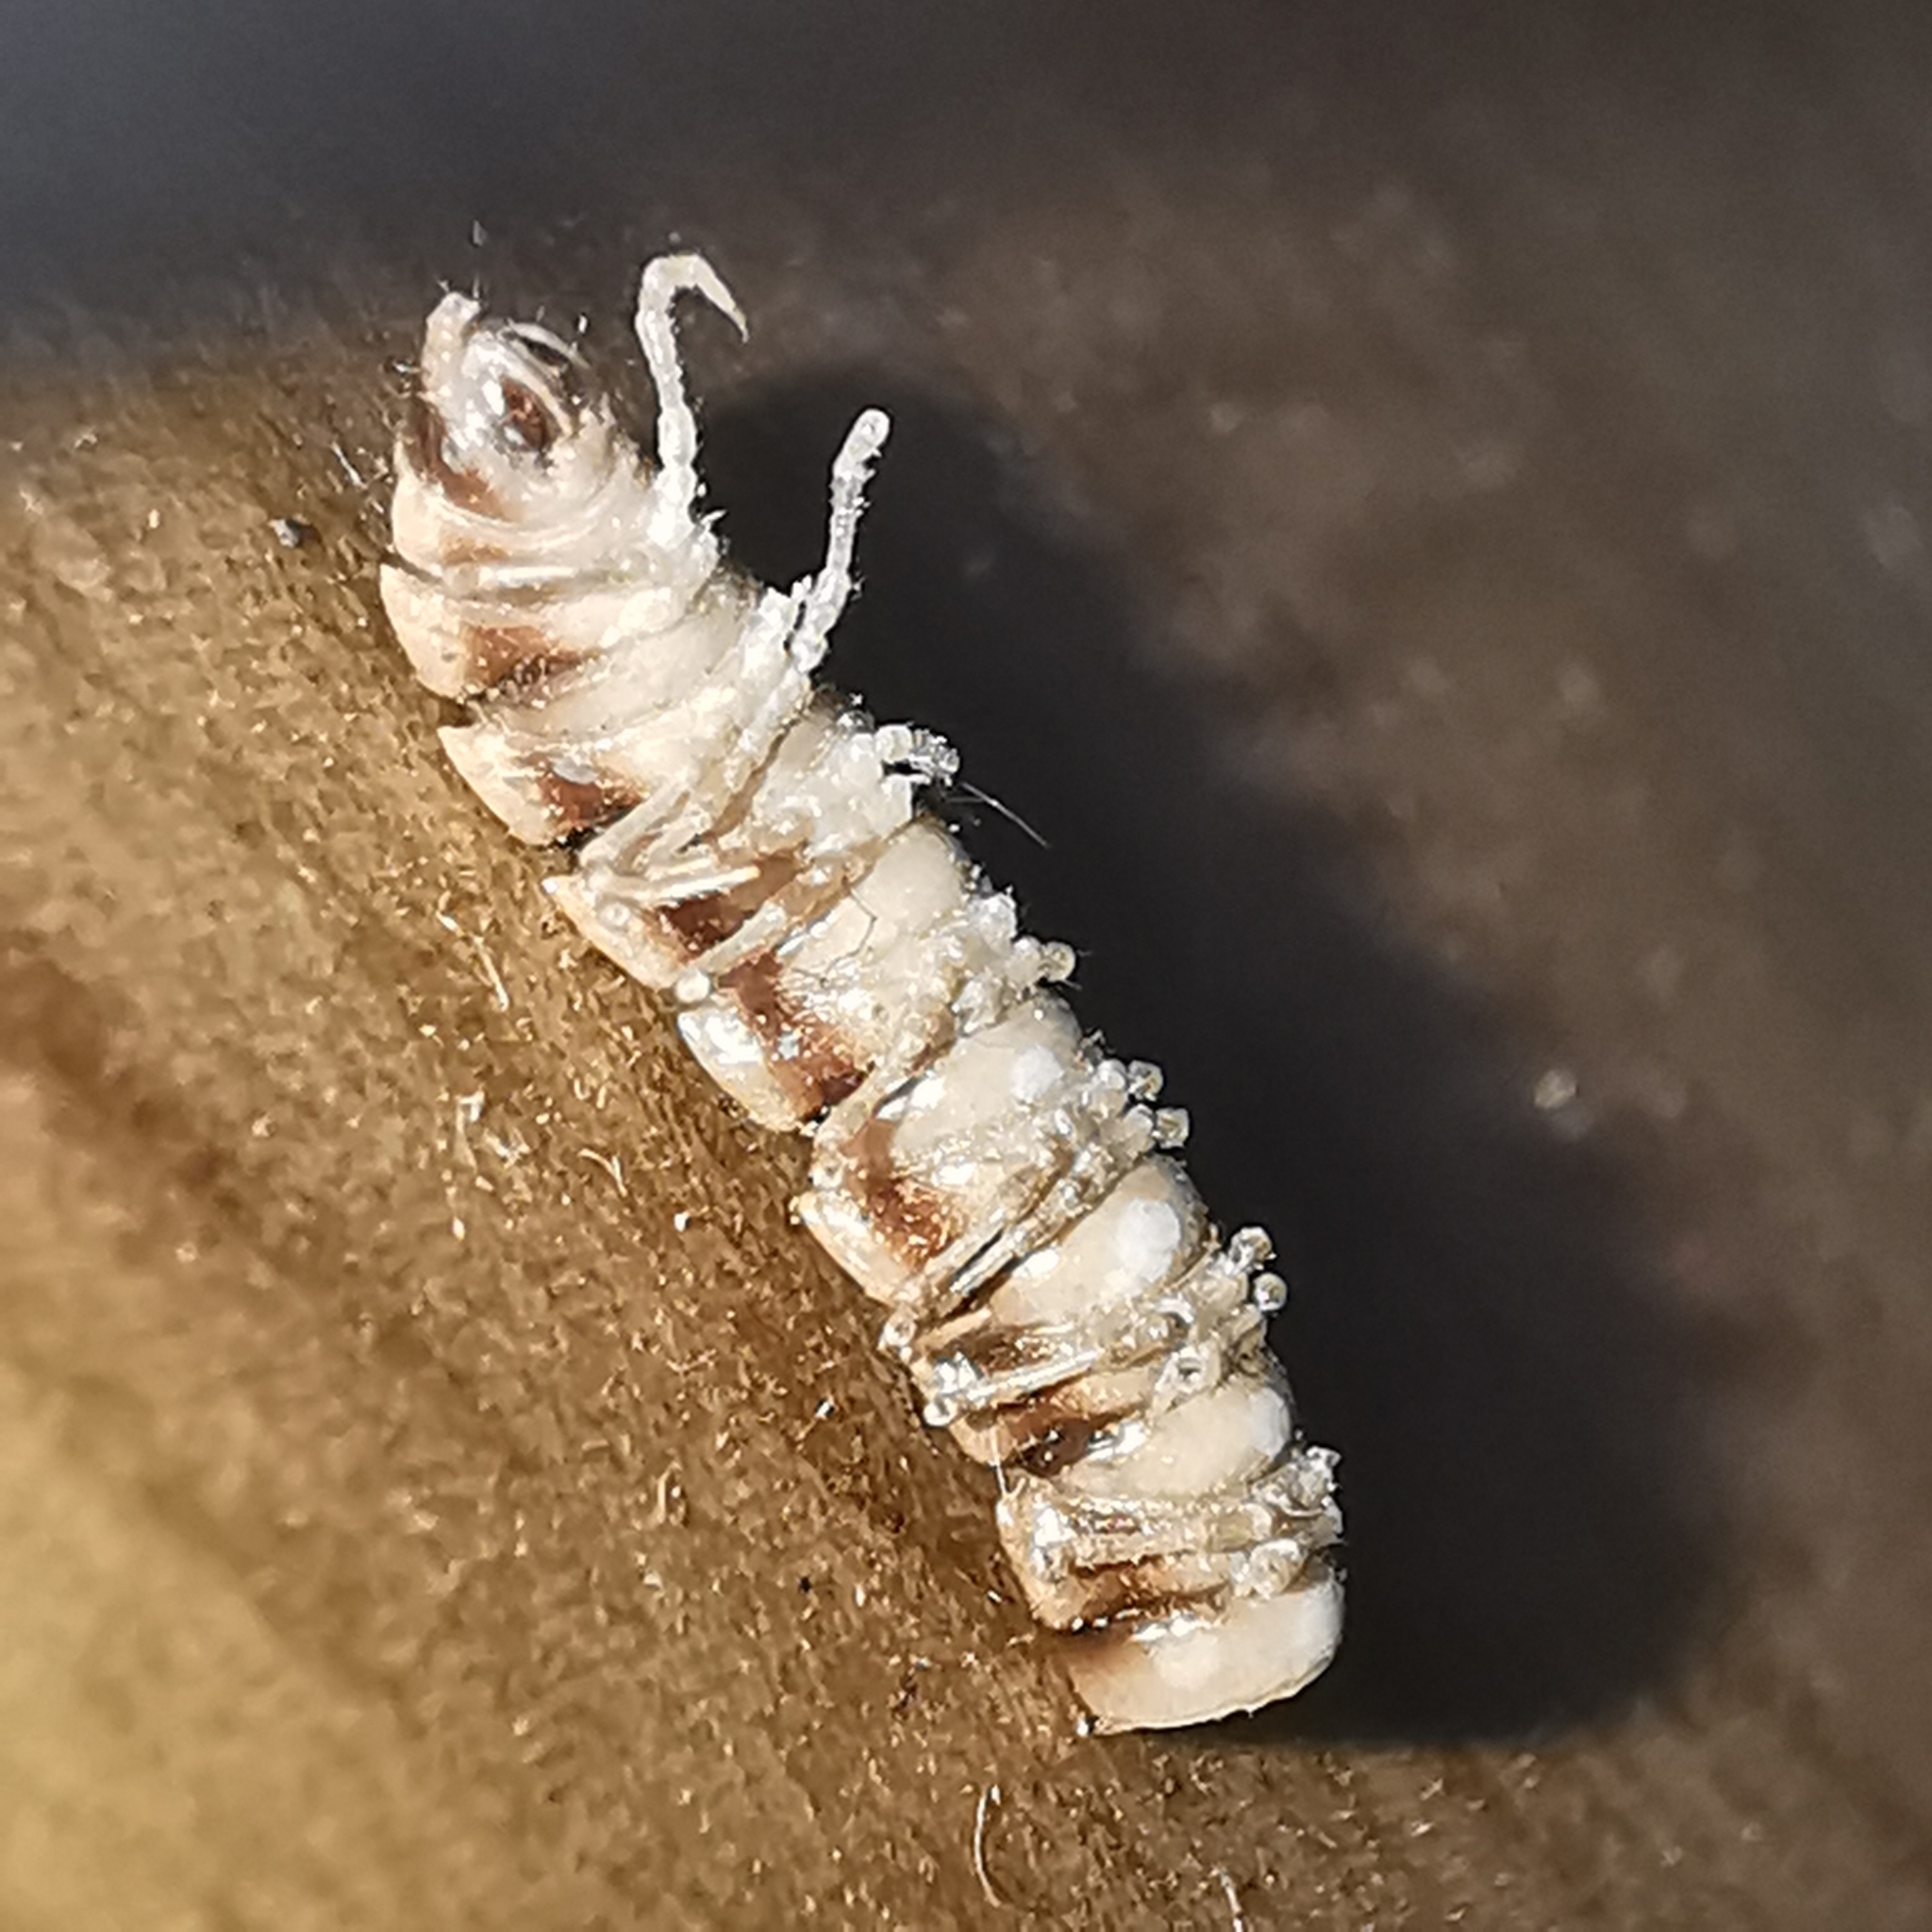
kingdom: Animalia
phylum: Arthropoda
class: Diplopoda
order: Polydesmida
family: Paradoxosomatidae
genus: Oxidus
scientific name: Oxidus gracilis
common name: Greenhouse millipede
